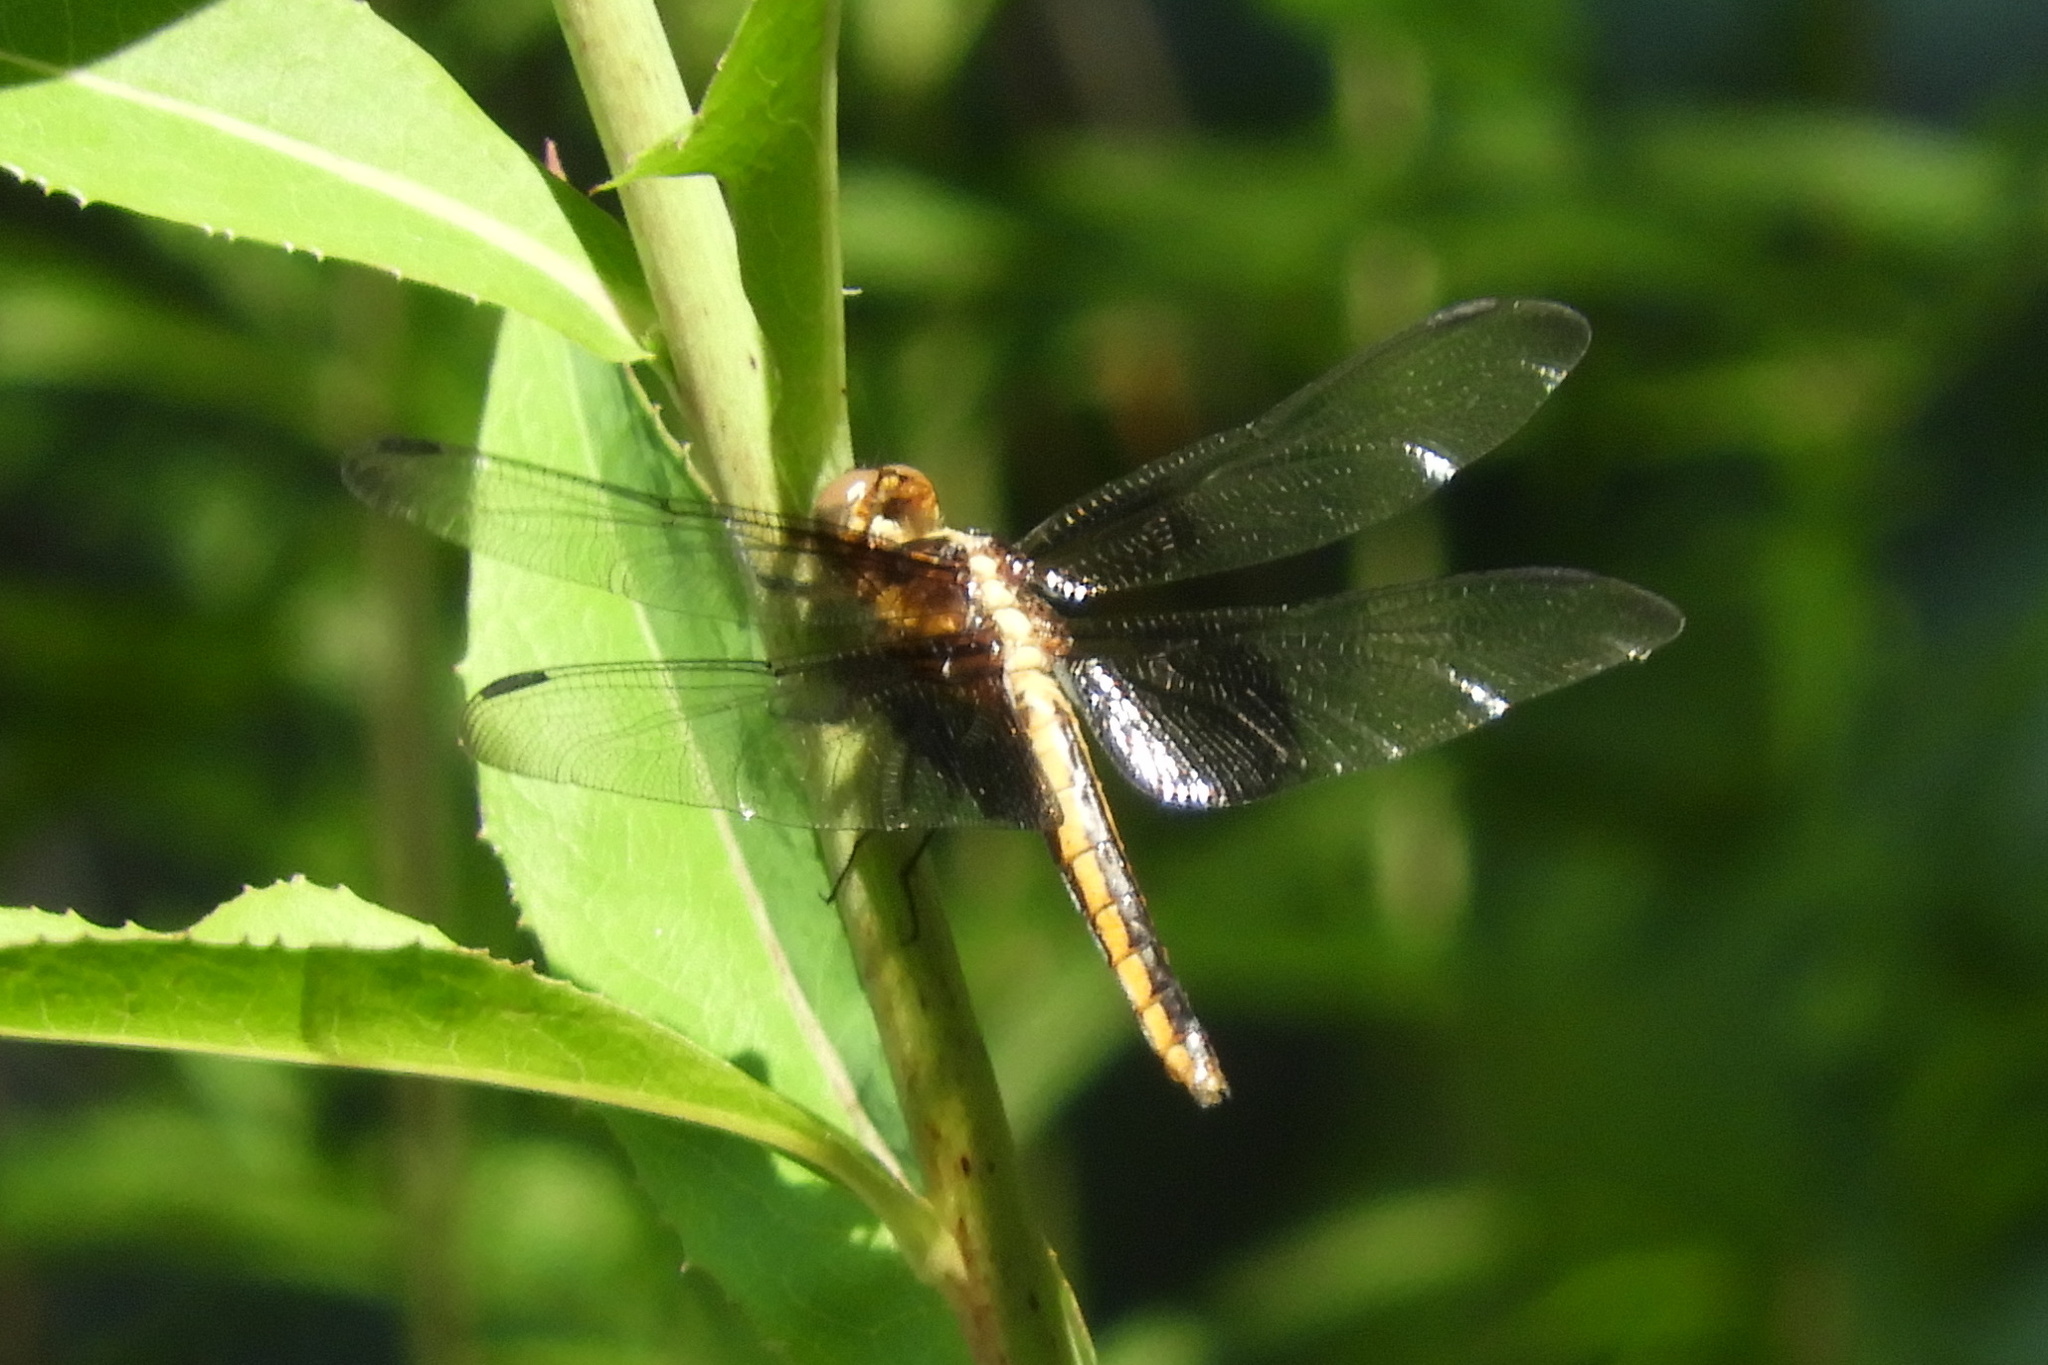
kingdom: Animalia
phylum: Arthropoda
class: Insecta
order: Odonata
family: Libellulidae
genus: Libellula
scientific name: Libellula luctuosa
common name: Widow skimmer
